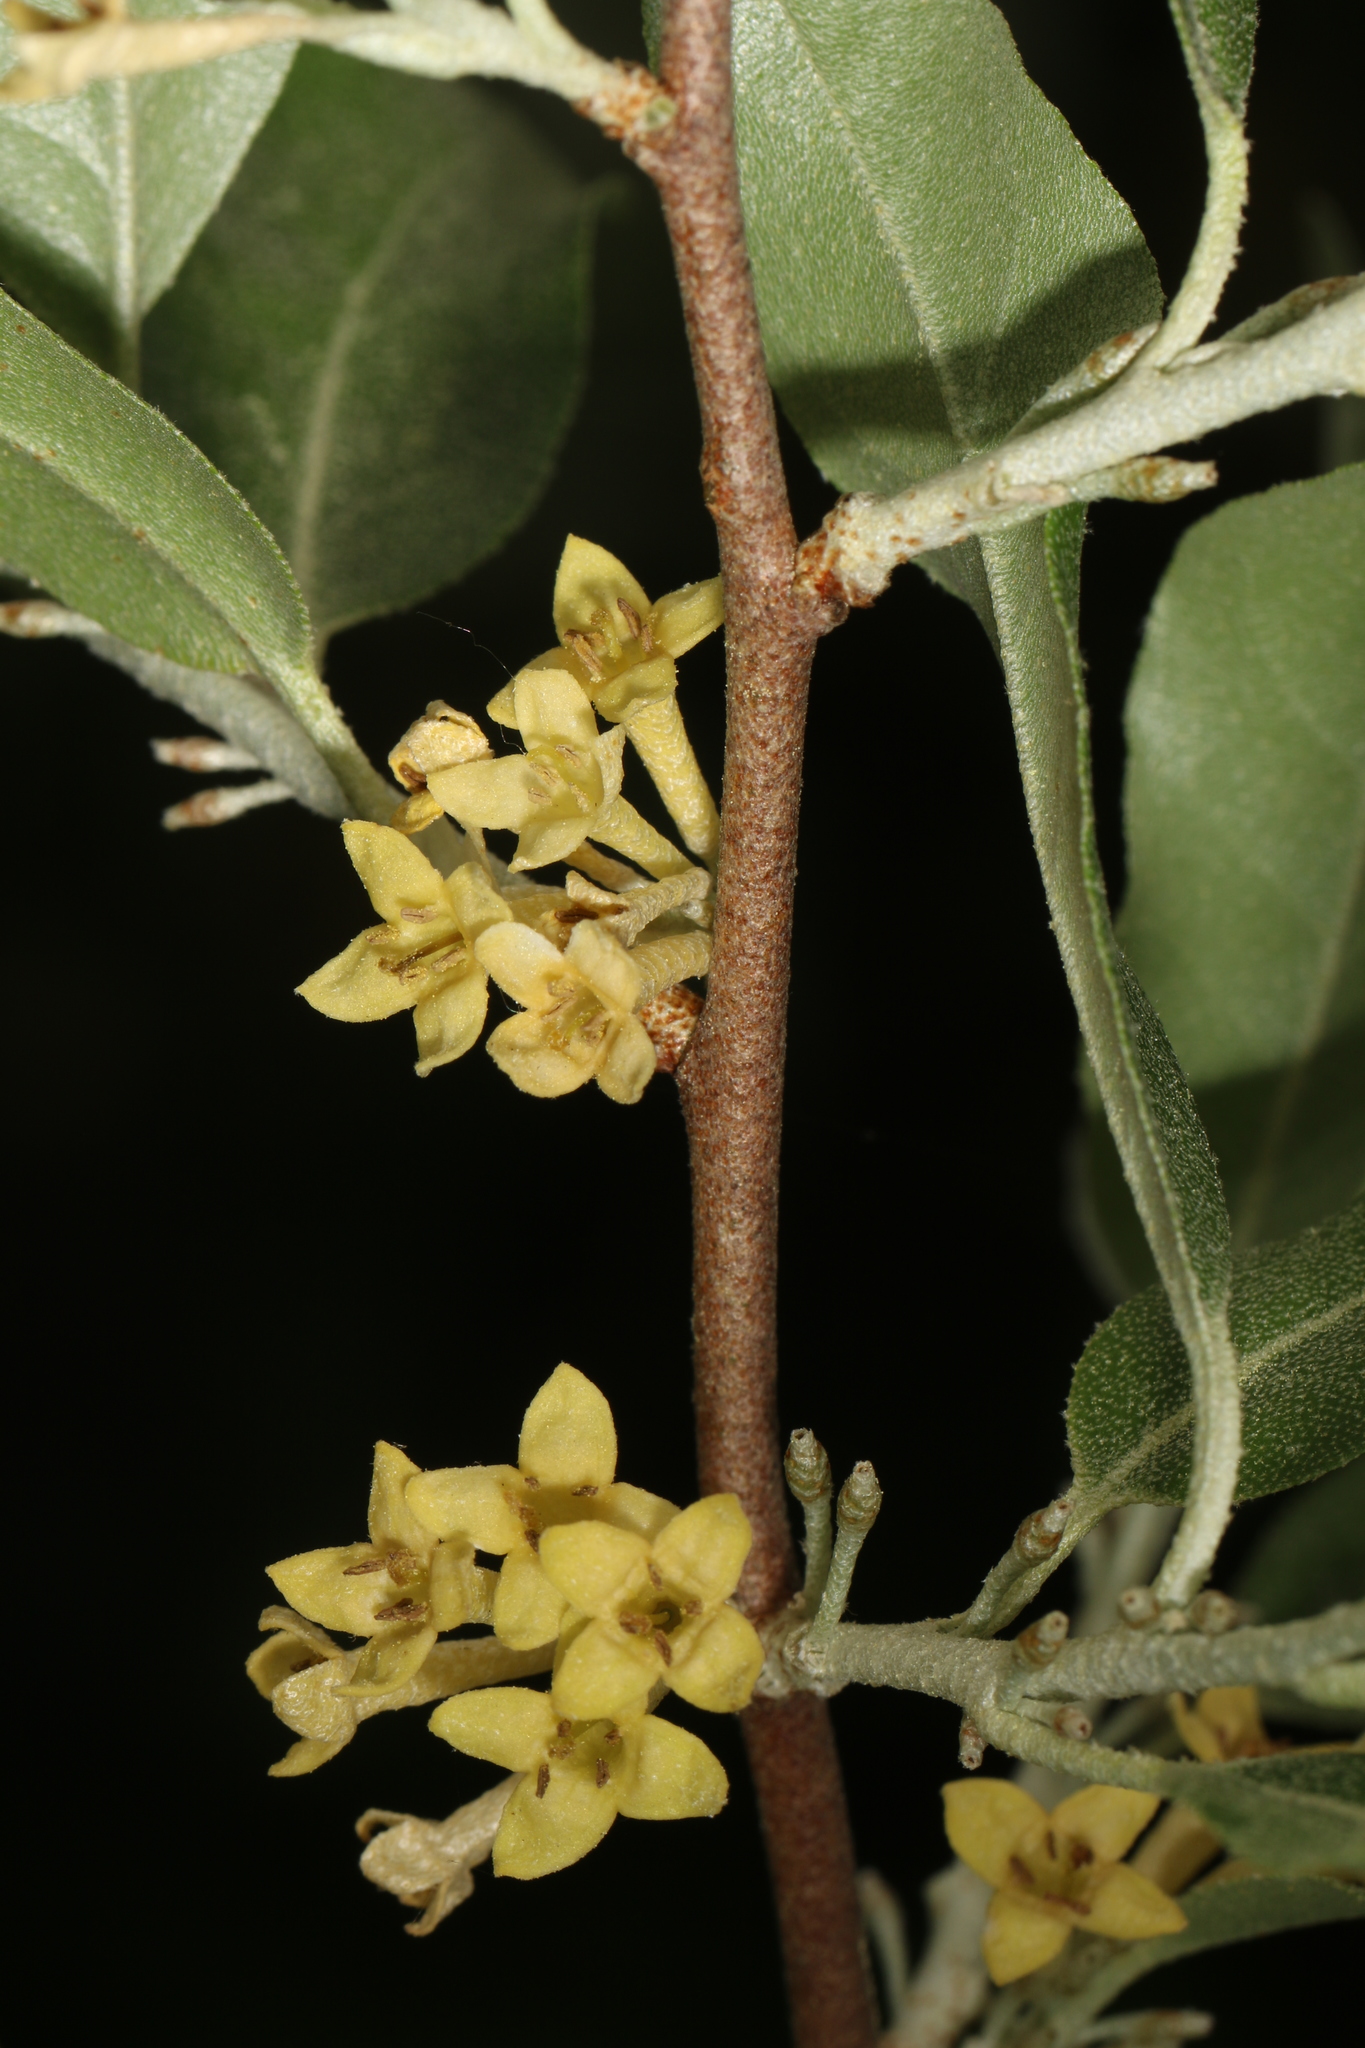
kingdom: Plantae
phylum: Tracheophyta
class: Magnoliopsida
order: Rosales
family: Elaeagnaceae
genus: Elaeagnus
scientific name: Elaeagnus umbellata
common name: Autumn olive
